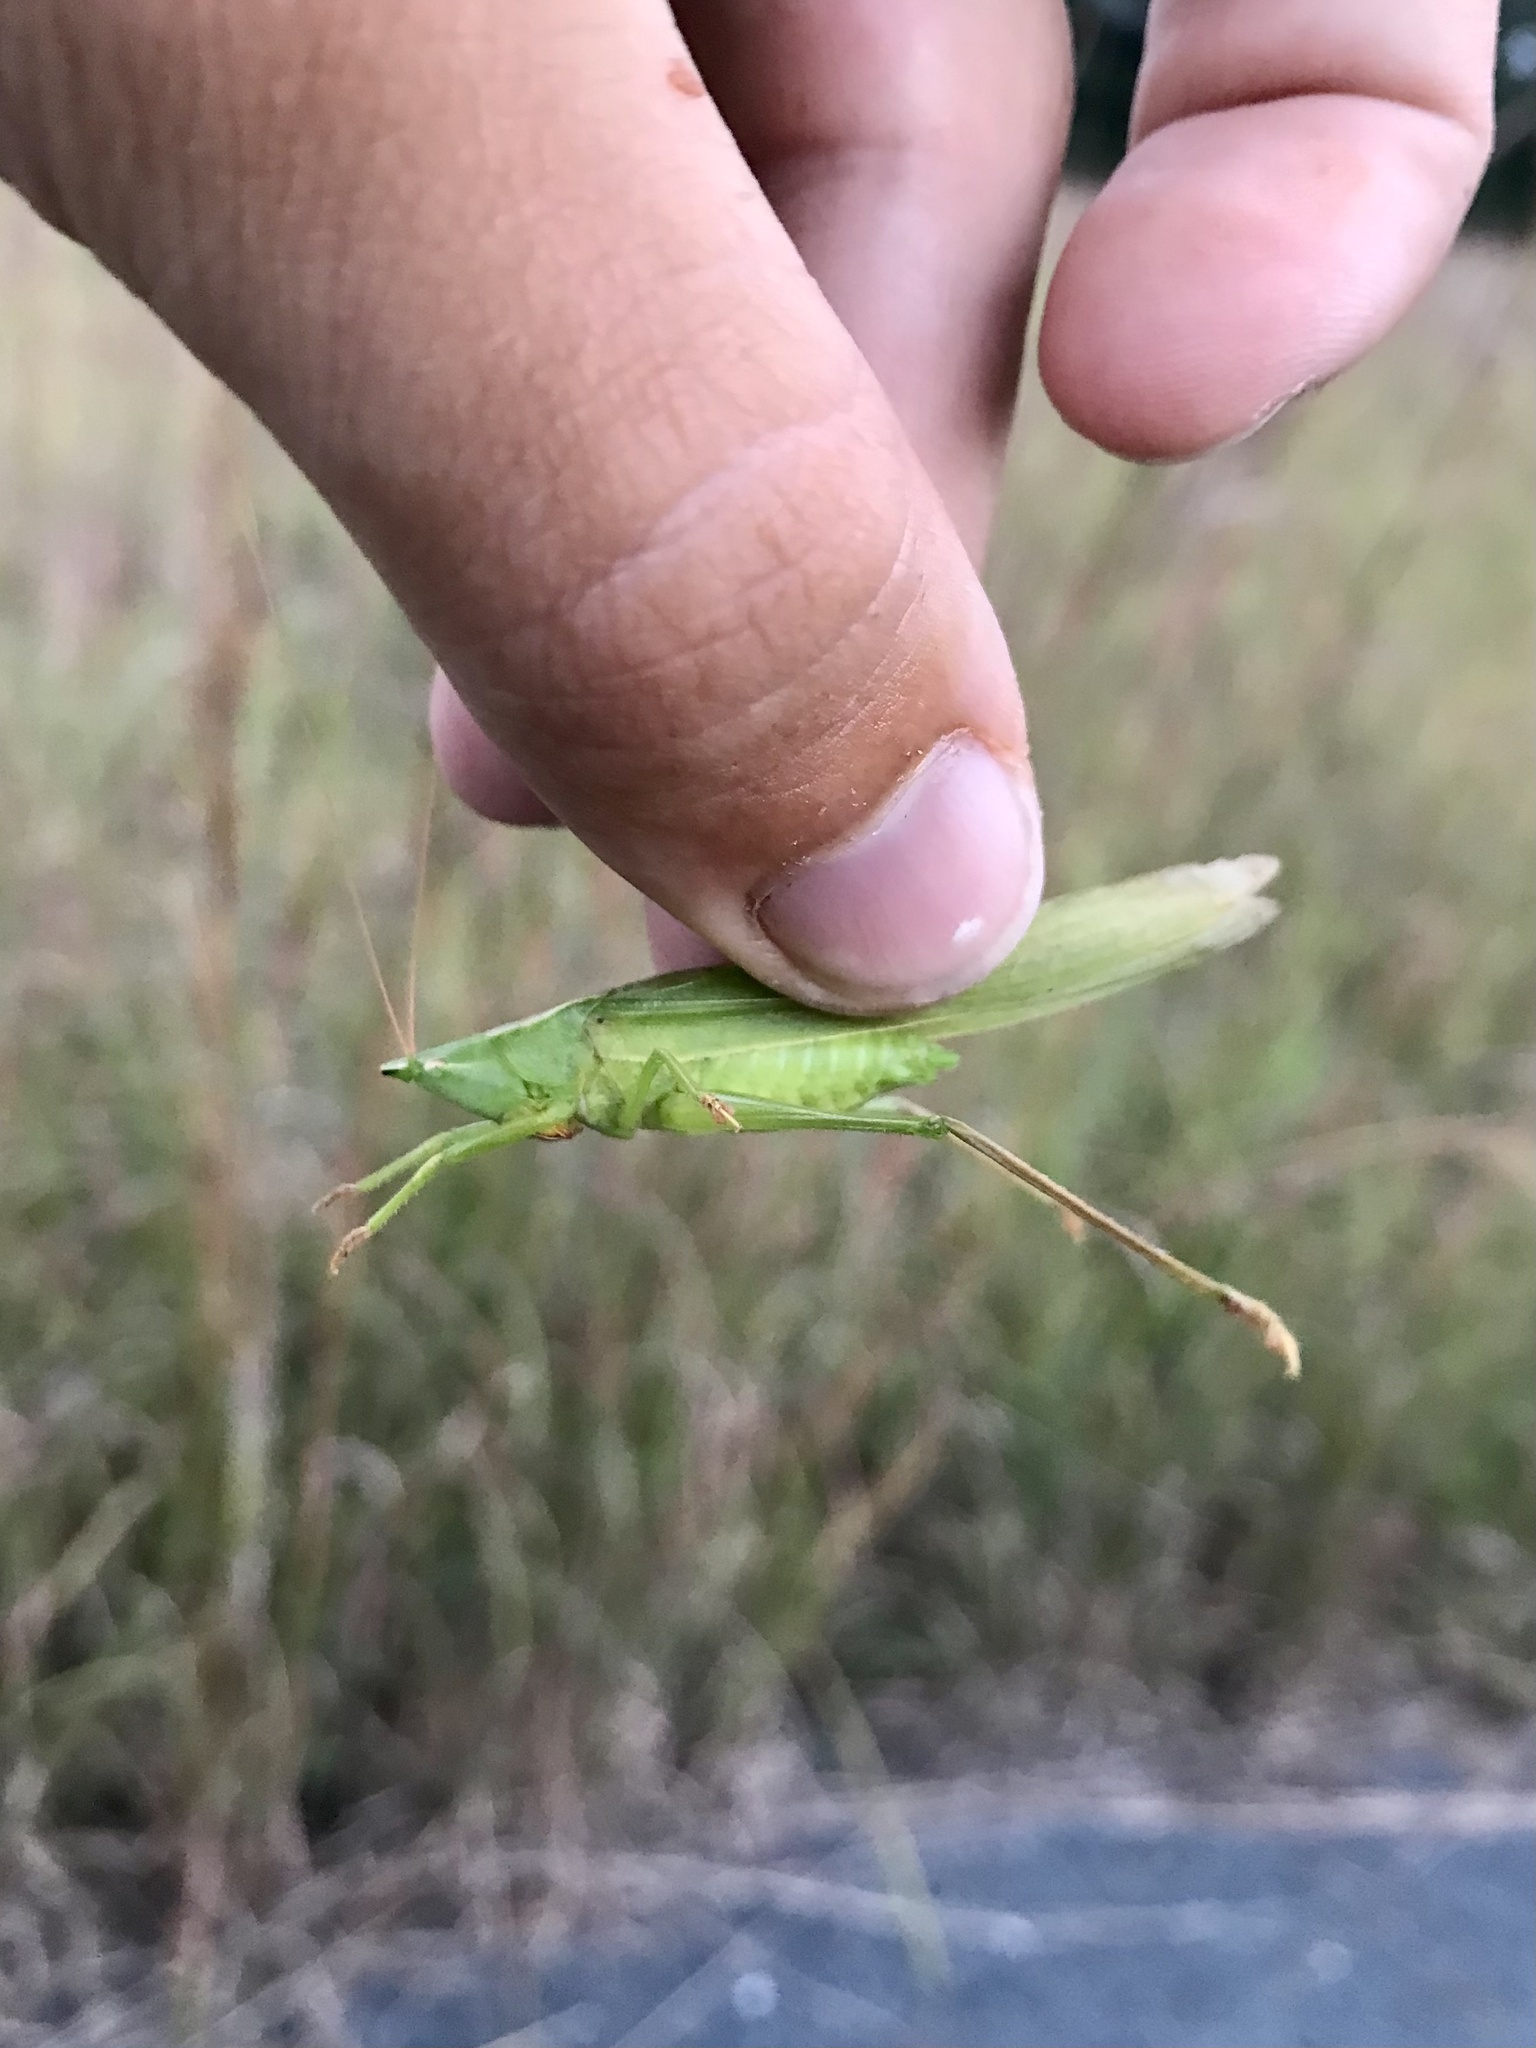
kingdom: Animalia
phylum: Arthropoda
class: Insecta
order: Orthoptera
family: Tettigoniidae
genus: Neoconocephalus
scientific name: Neoconocephalus ensiger
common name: Swordbearer
